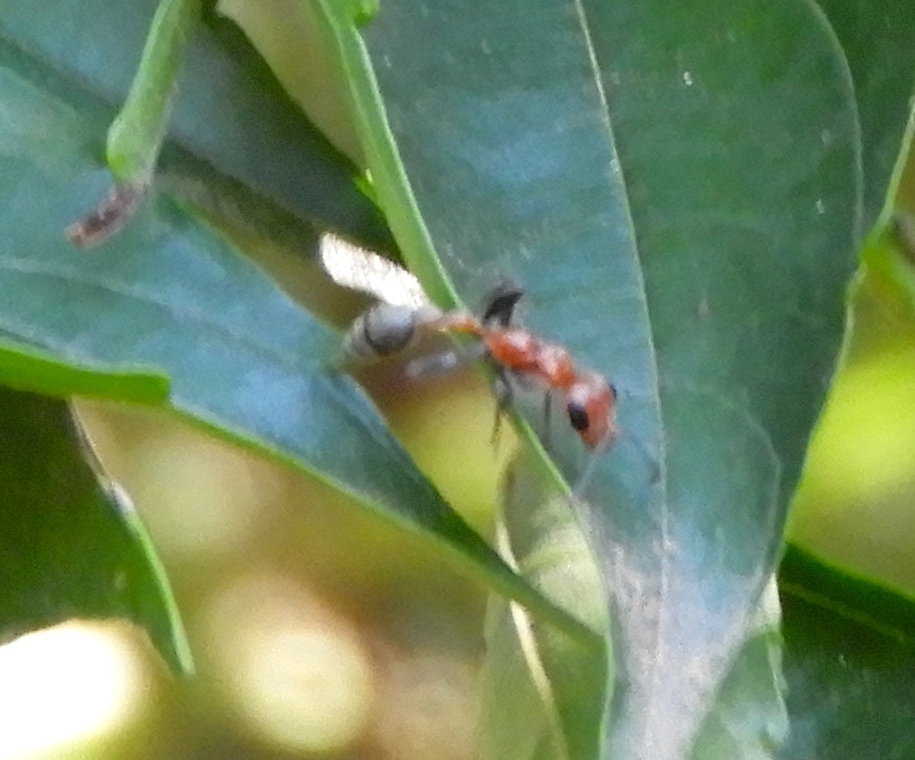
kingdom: Animalia
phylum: Arthropoda
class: Insecta
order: Hymenoptera
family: Formicidae
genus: Pseudomyrmex
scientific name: Pseudomyrmex
